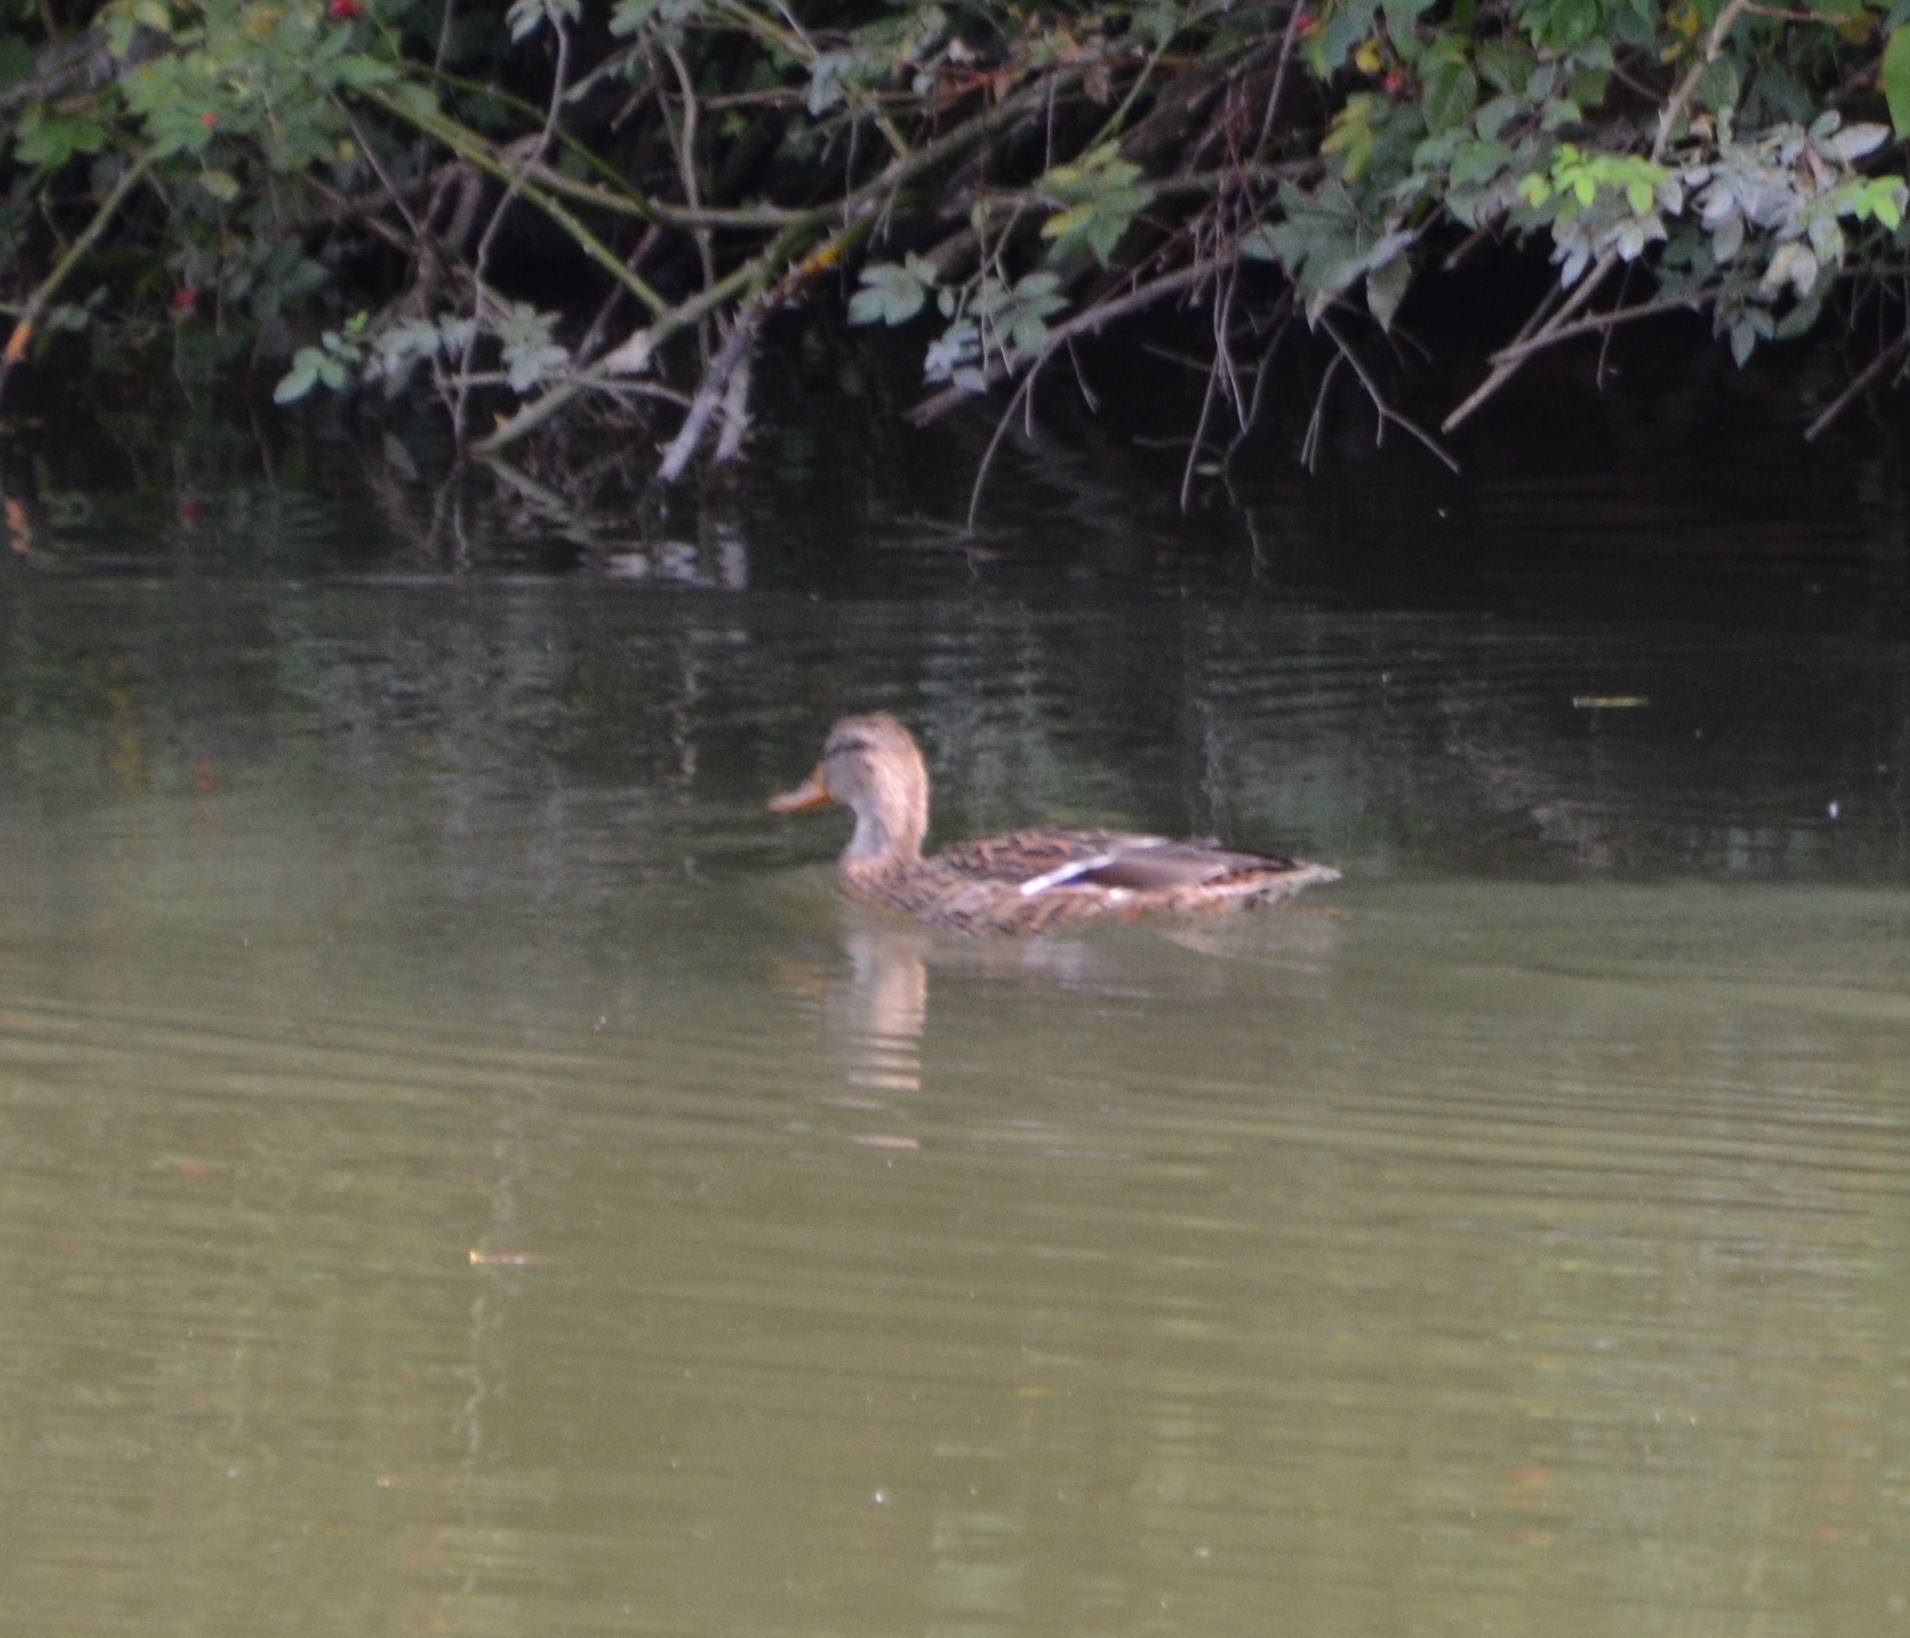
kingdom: Animalia
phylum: Chordata
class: Aves
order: Anseriformes
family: Anatidae
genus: Anas
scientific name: Anas platyrhynchos
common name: Mallard
